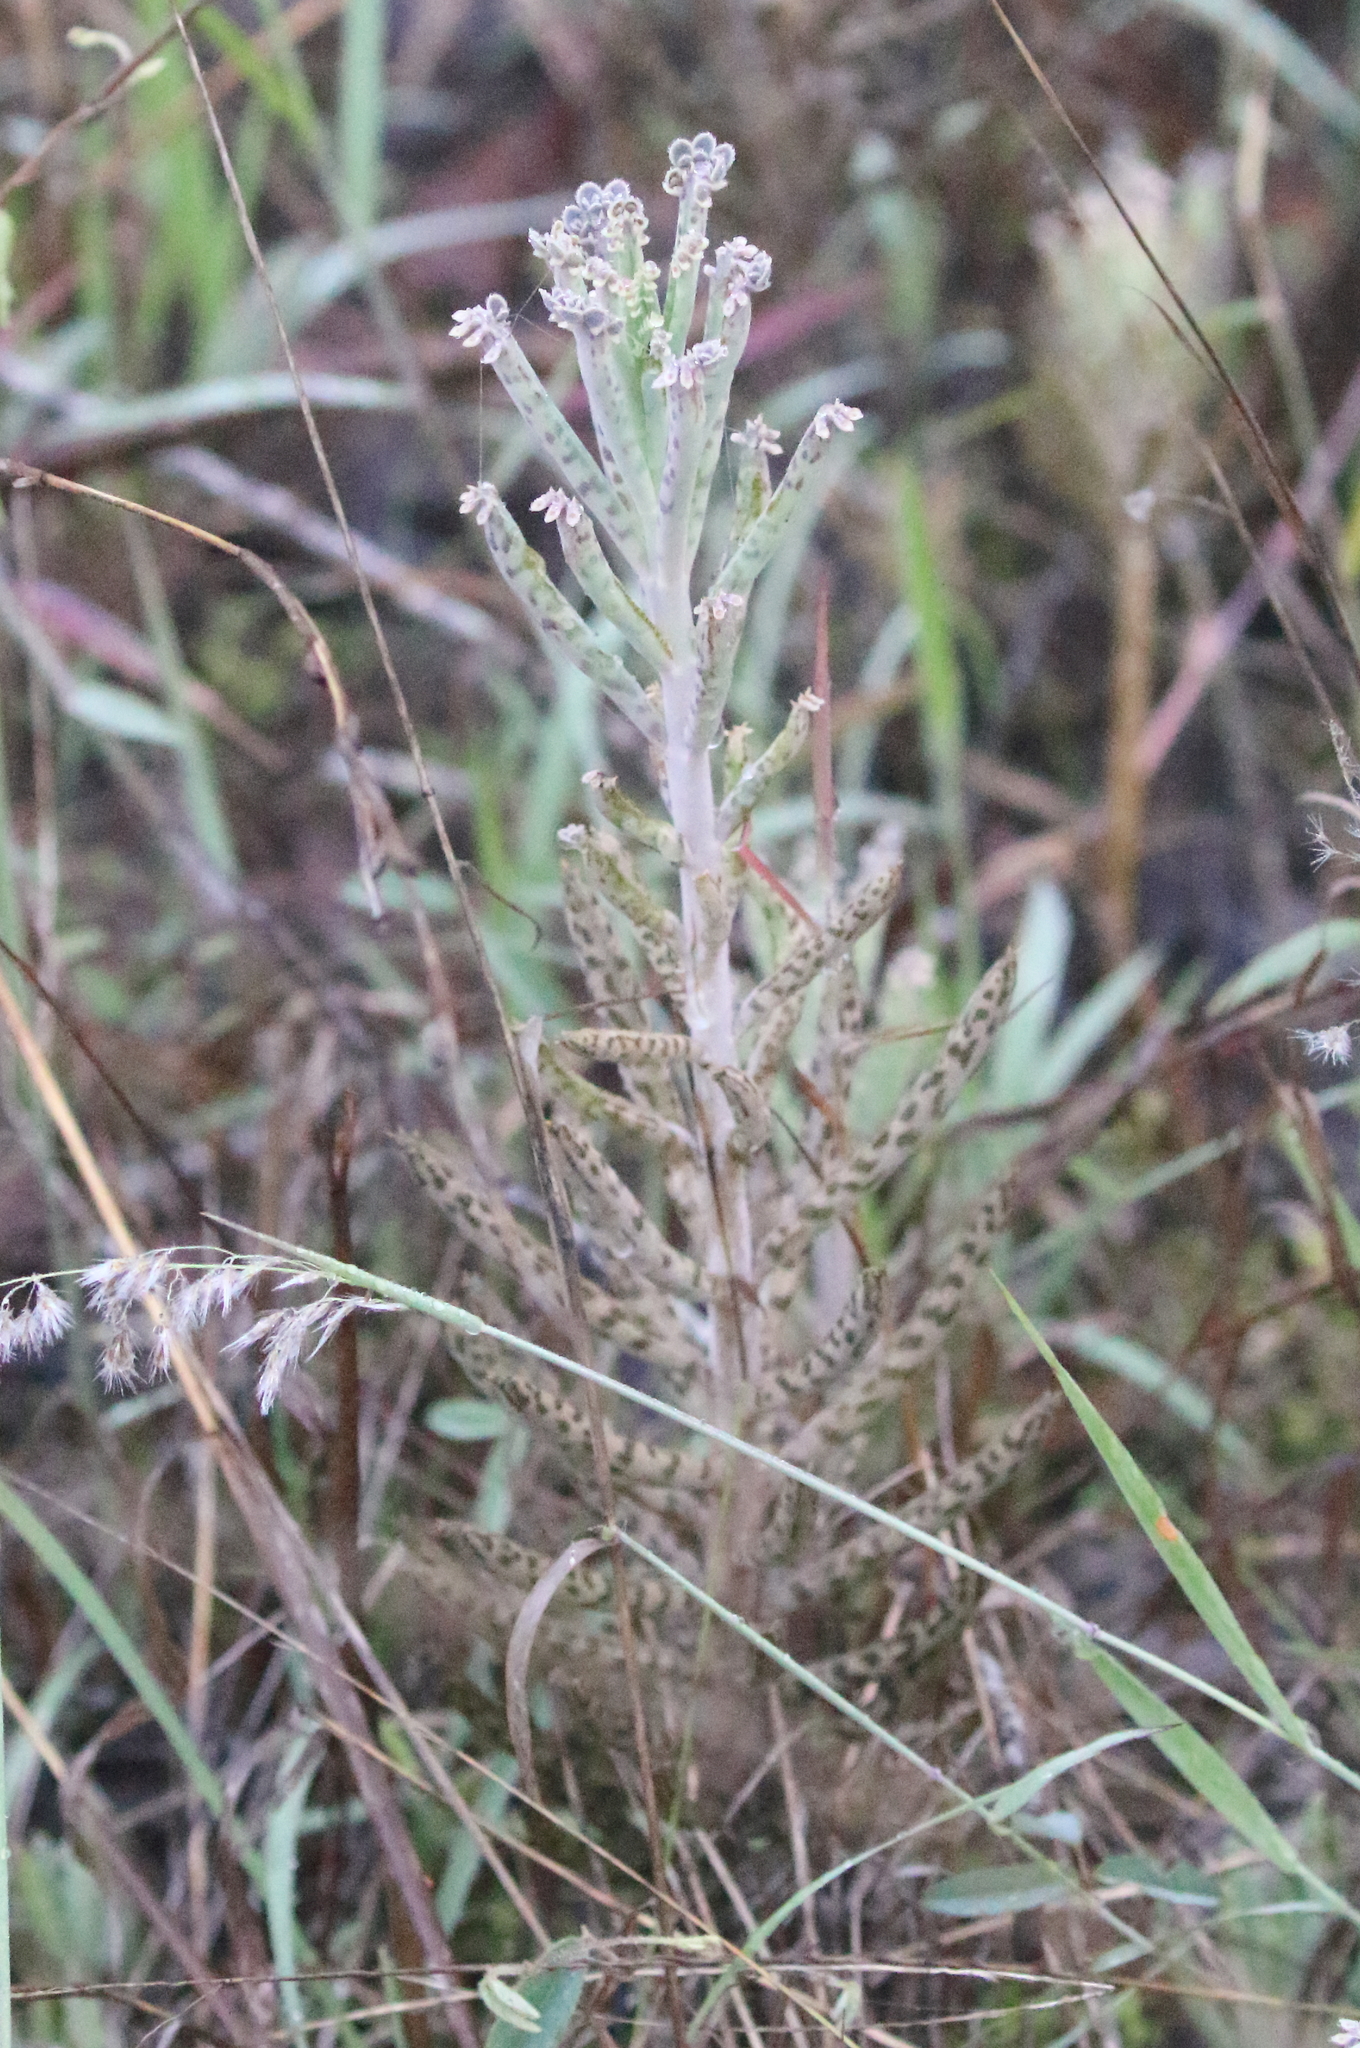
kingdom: Plantae
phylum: Tracheophyta
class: Magnoliopsida
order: Saxifragales
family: Crassulaceae
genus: Kalanchoe
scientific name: Kalanchoe delagoensis
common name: Chandelier plant
